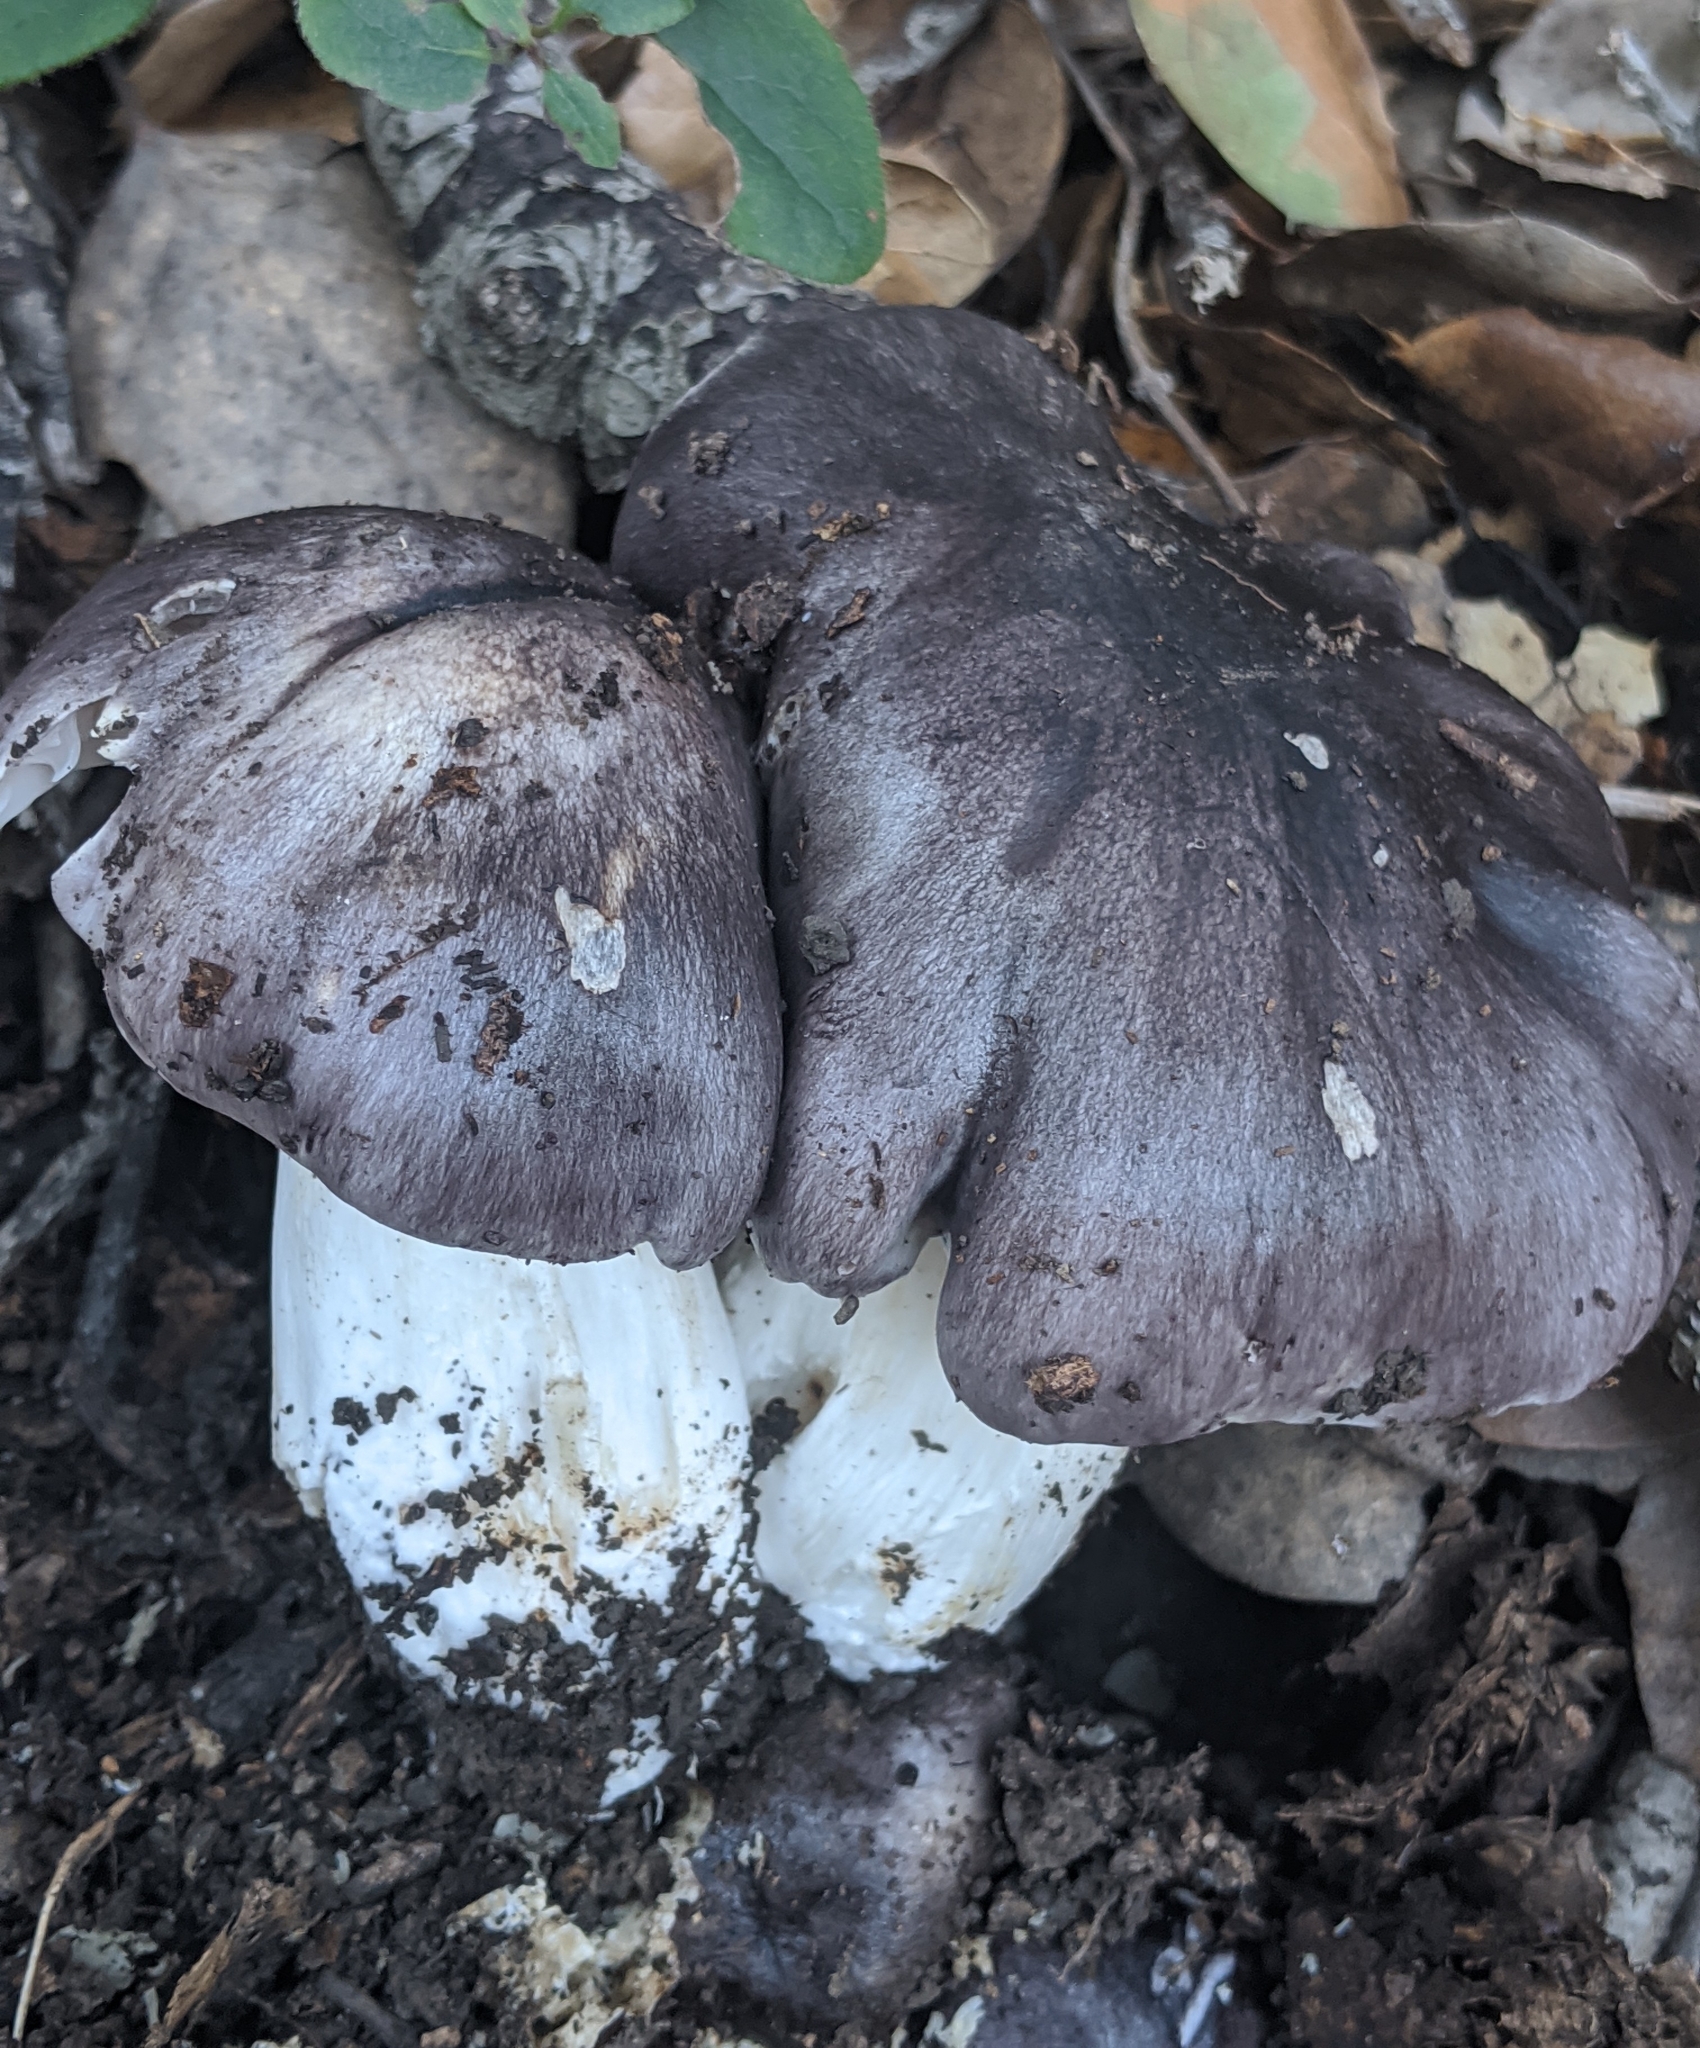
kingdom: Fungi
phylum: Basidiomycota
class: Agaricomycetes
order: Agaricales
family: Tricholomataceae
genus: Tricholoma
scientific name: Tricholoma griseoviolaceum
